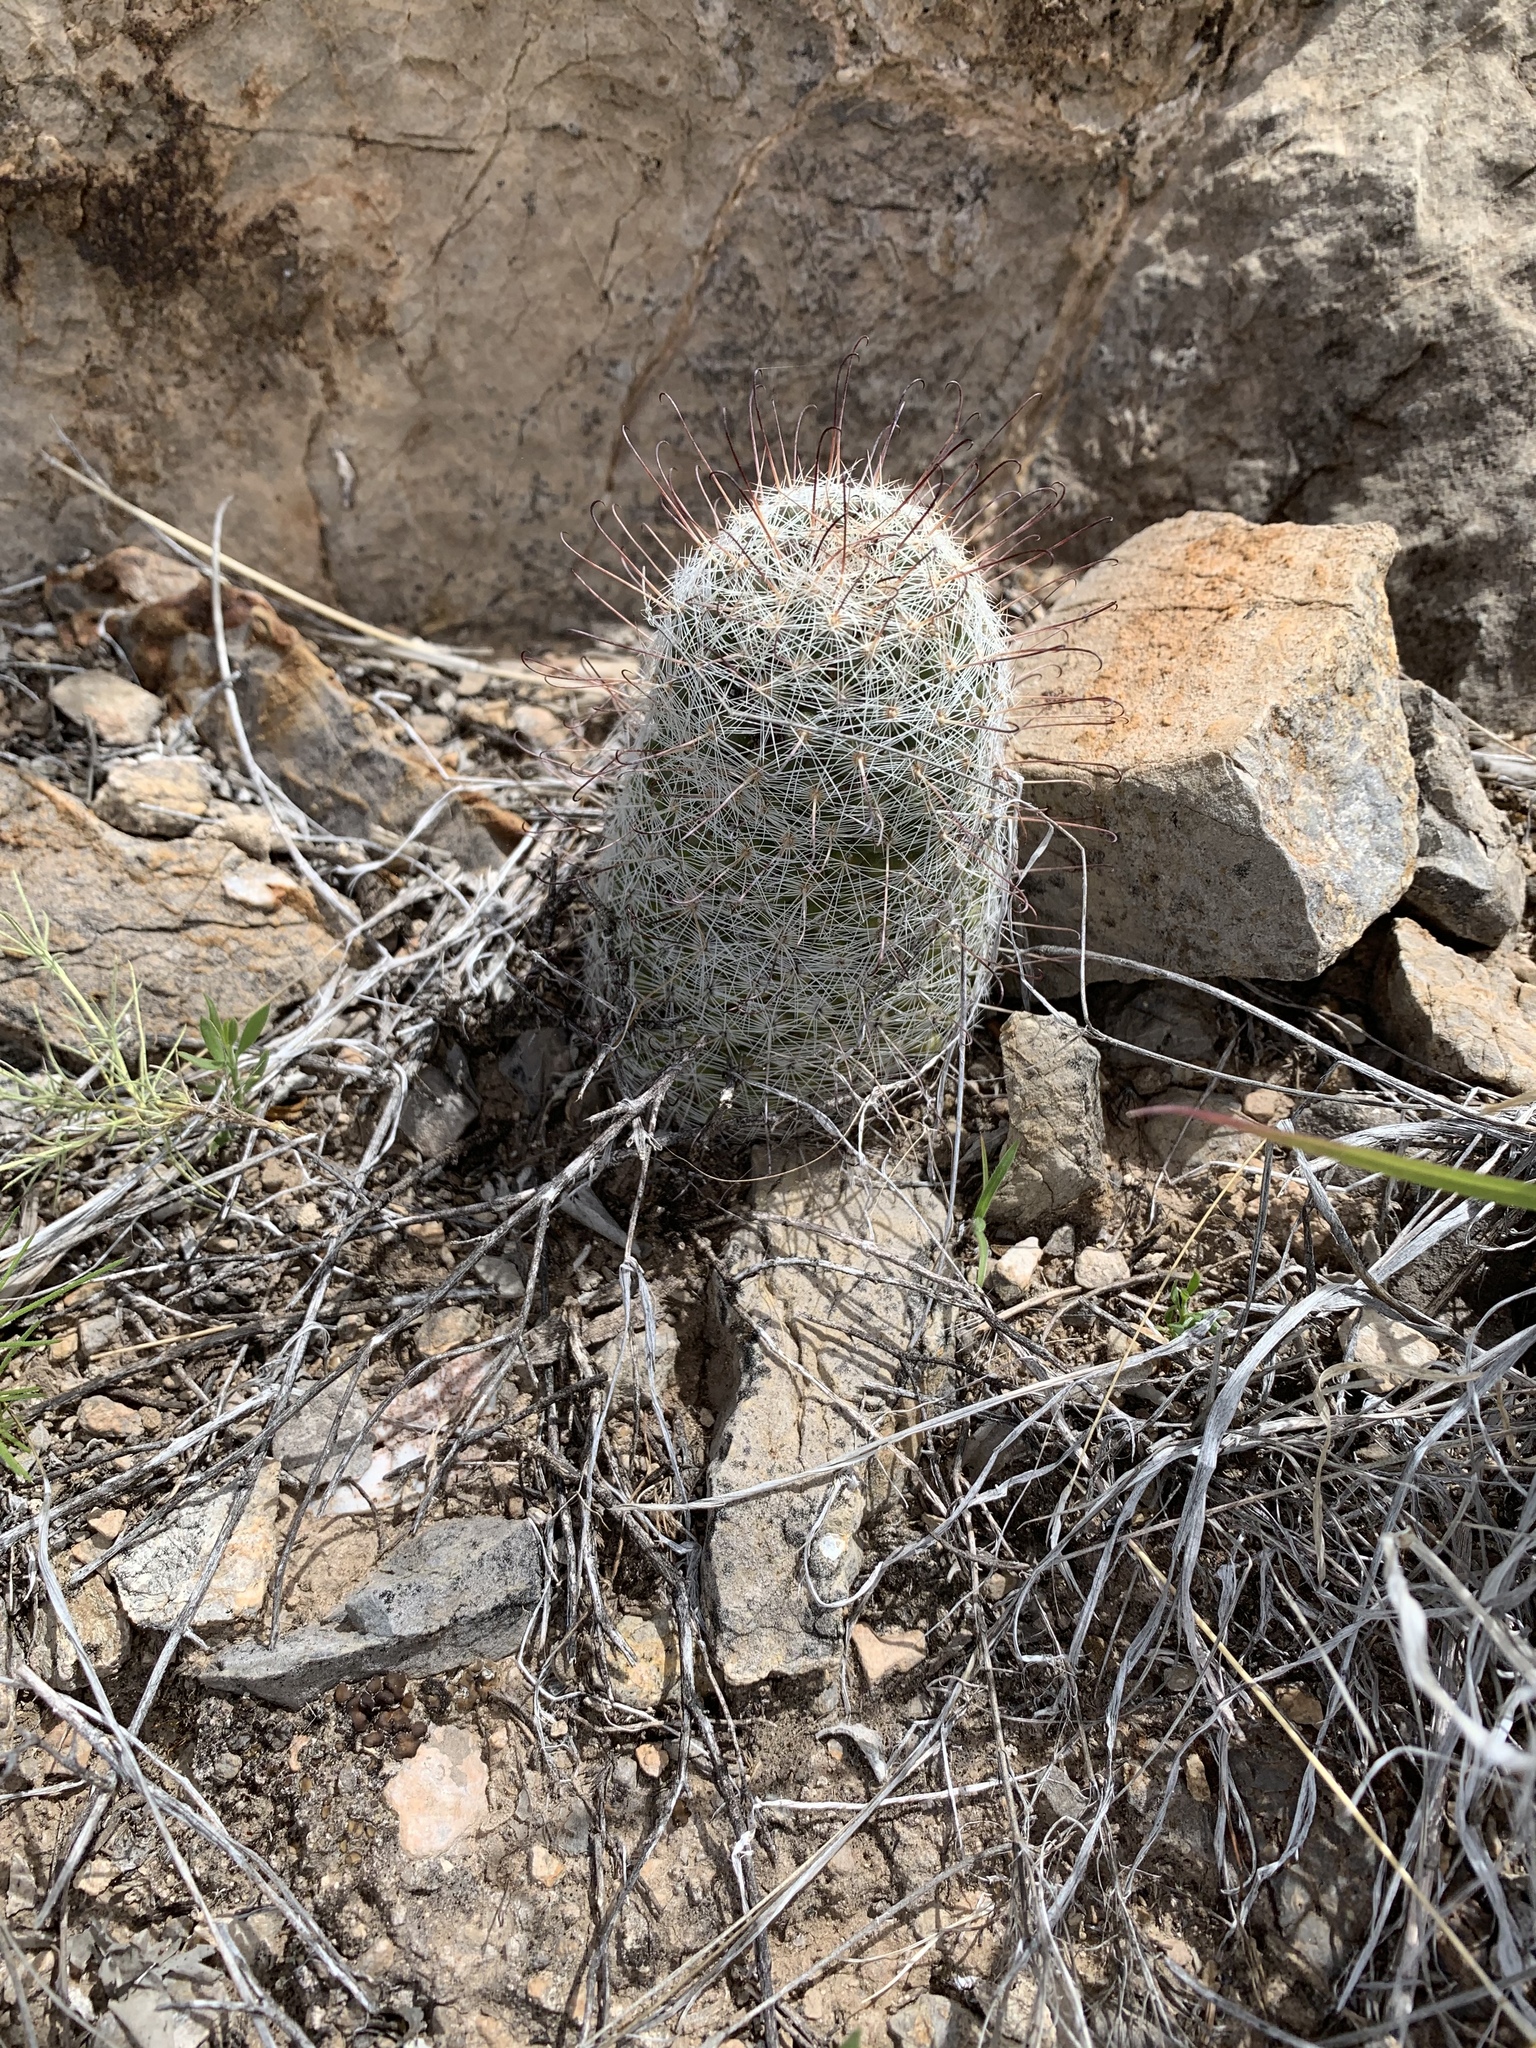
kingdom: Plantae
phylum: Tracheophyta
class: Magnoliopsida
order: Caryophyllales
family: Cactaceae
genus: Cochemiea
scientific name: Cochemiea grahamii
